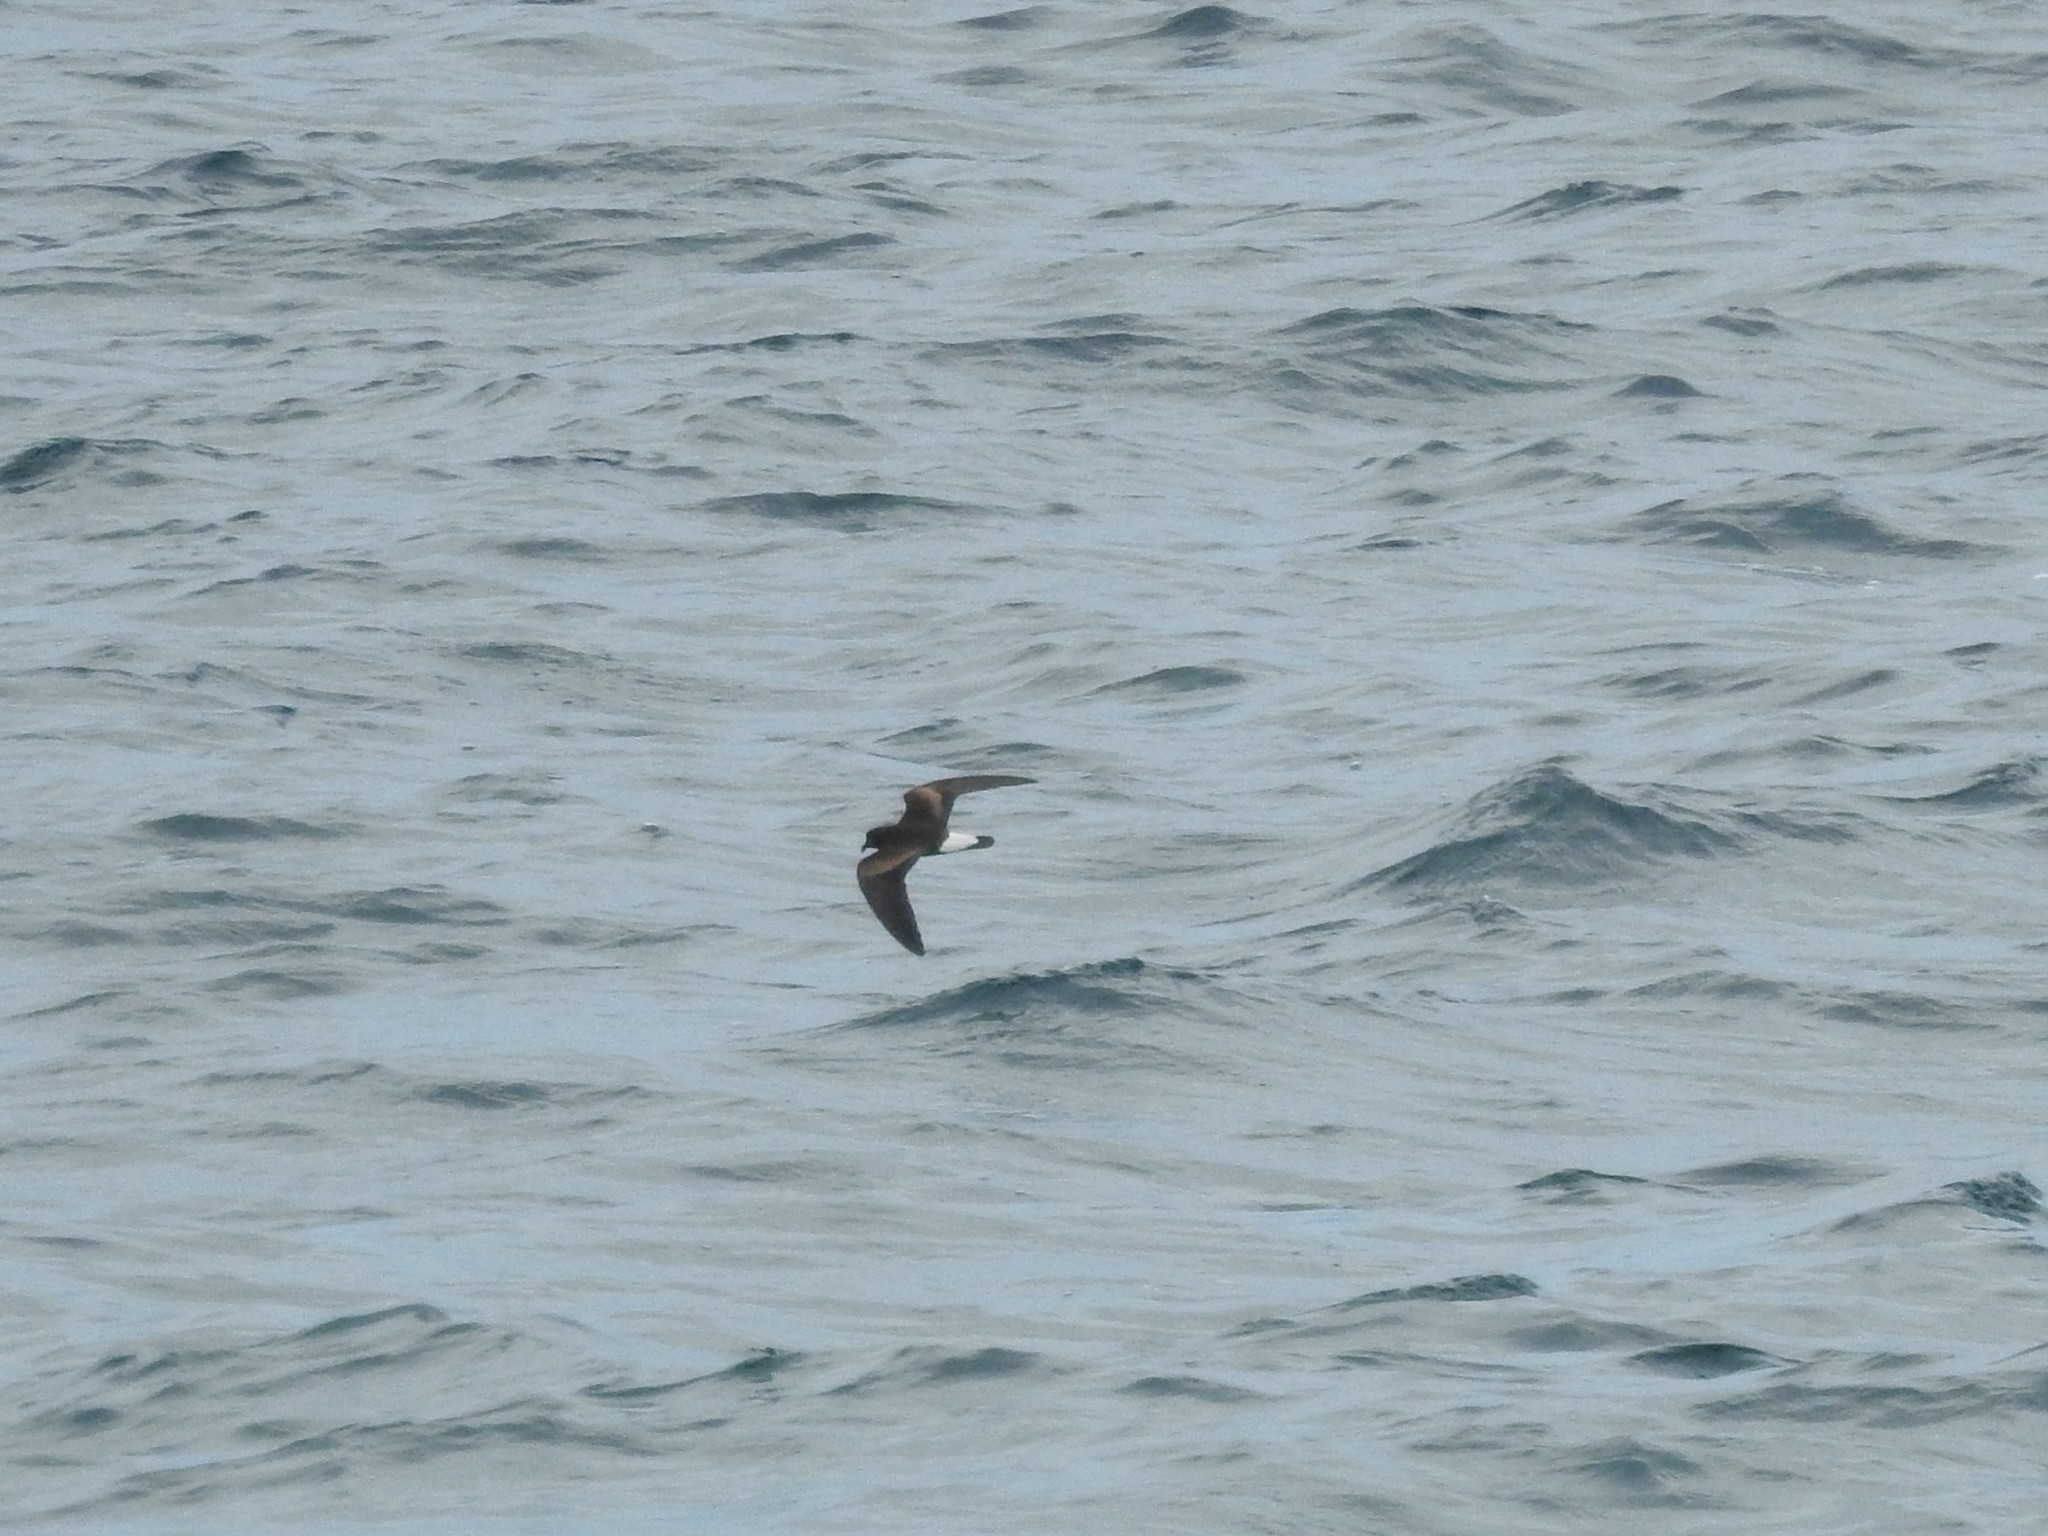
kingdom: Animalia
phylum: Chordata
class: Aves
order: Procellariiformes
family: Hydrobatidae
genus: Oceanodroma
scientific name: Oceanodroma tethys
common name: Wedge-rumped storm-petrel
